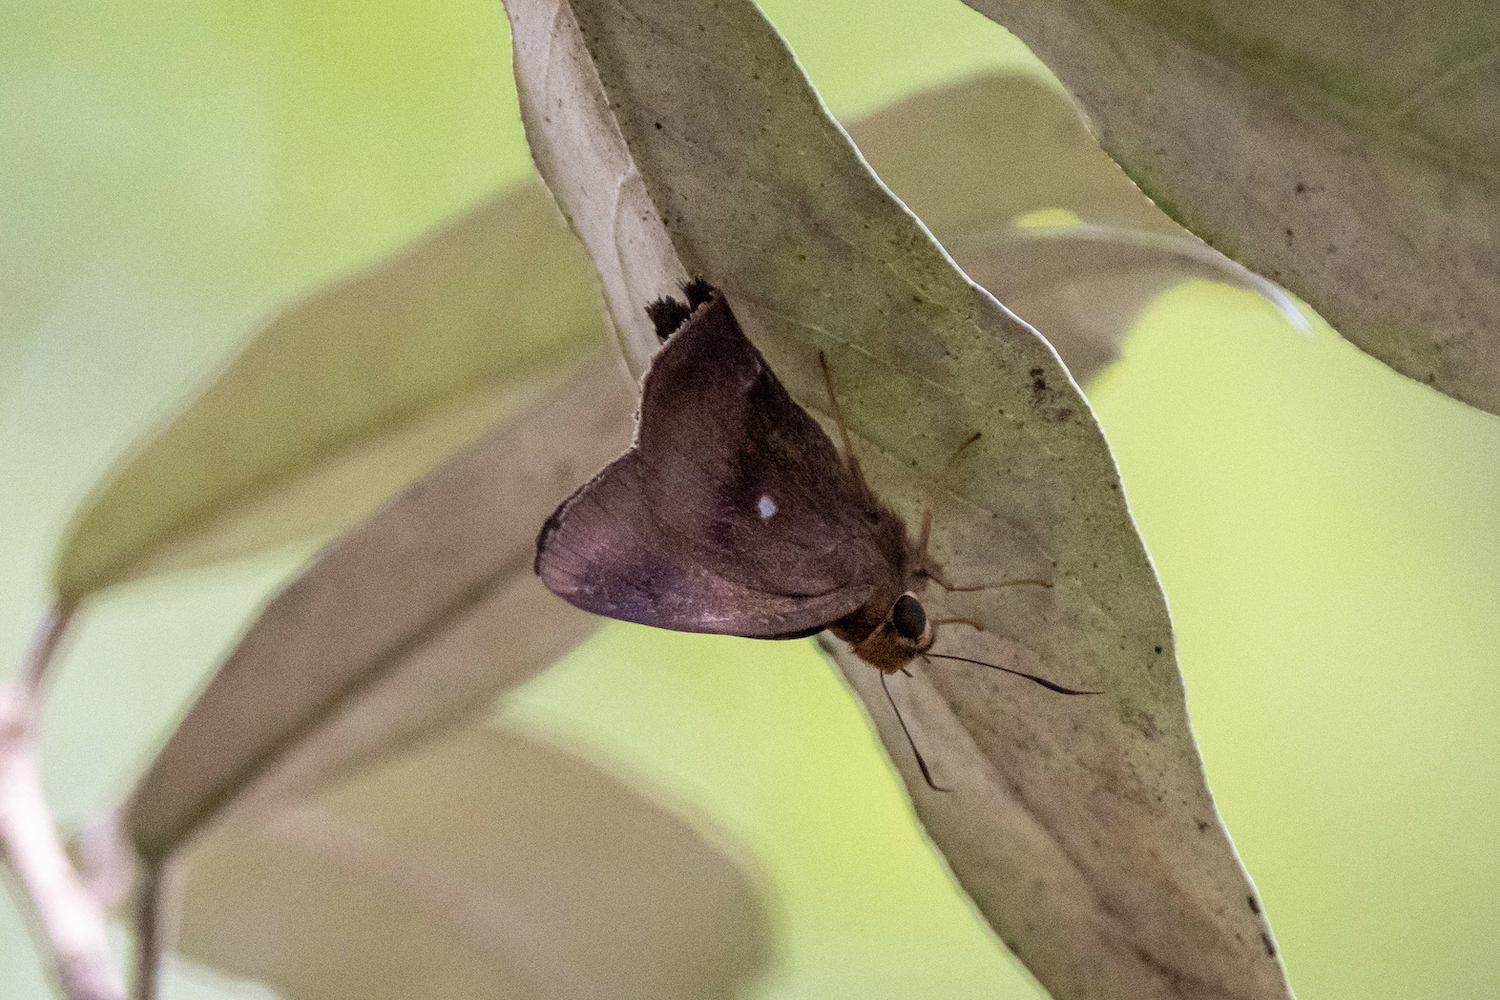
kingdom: Animalia
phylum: Arthropoda
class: Insecta
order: Lepidoptera
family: Hesperiidae
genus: Hasora
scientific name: Hasora badra
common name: Common awl
